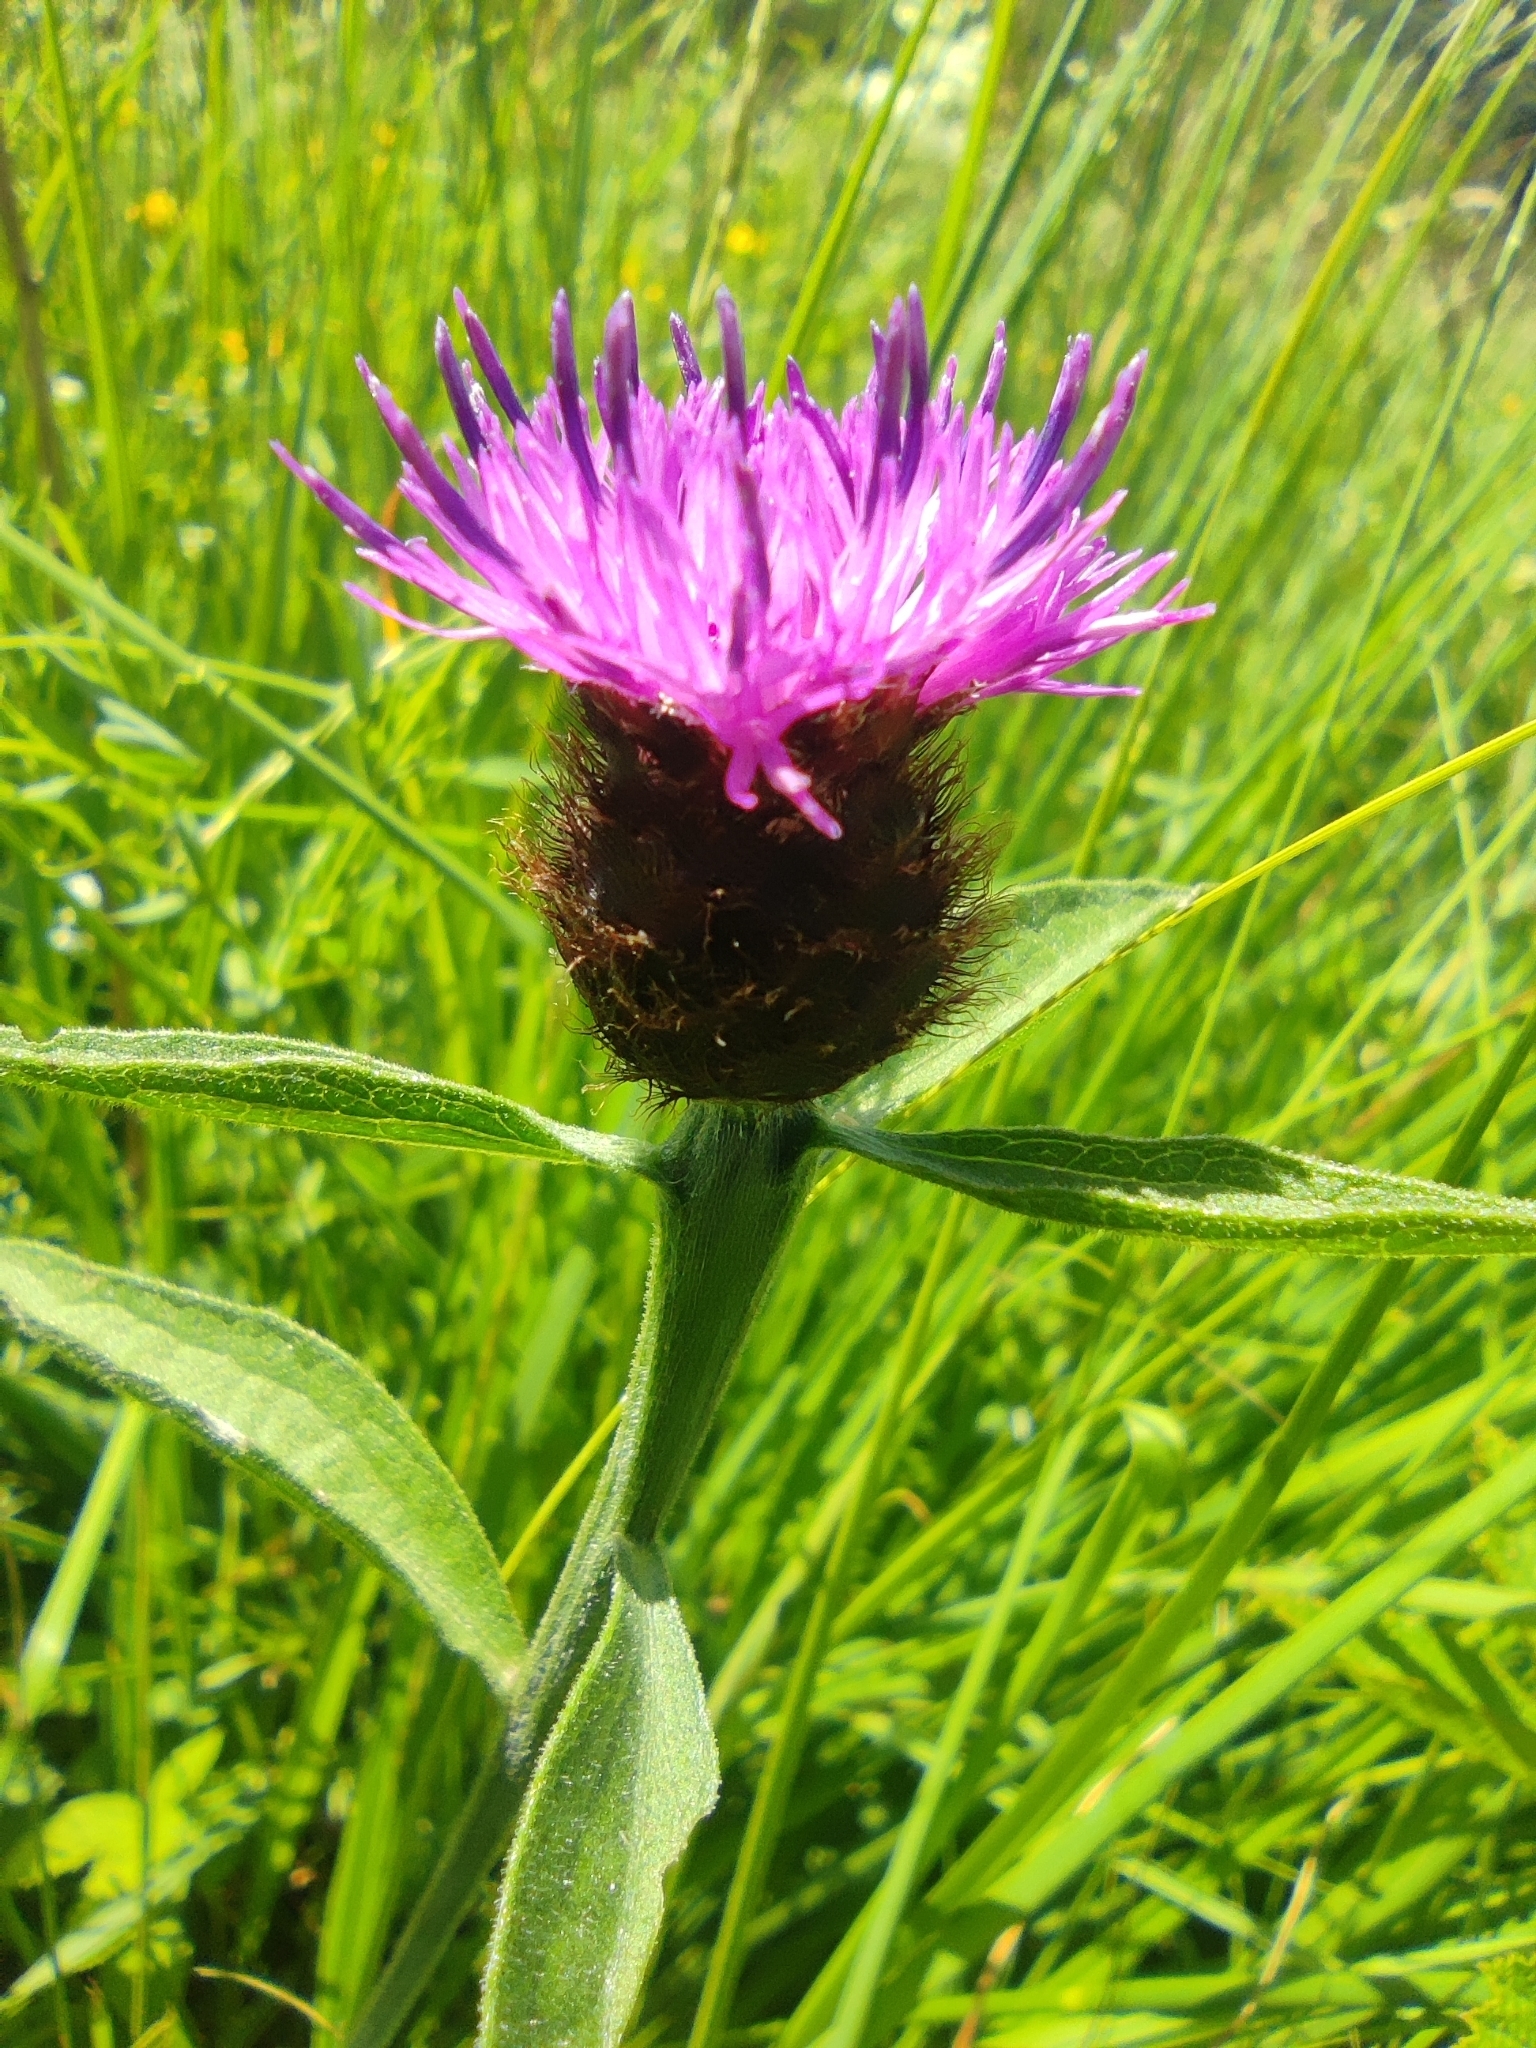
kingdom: Plantae
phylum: Tracheophyta
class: Magnoliopsida
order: Asterales
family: Asteraceae
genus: Centaurea
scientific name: Centaurea nigra
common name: Lesser knapweed
